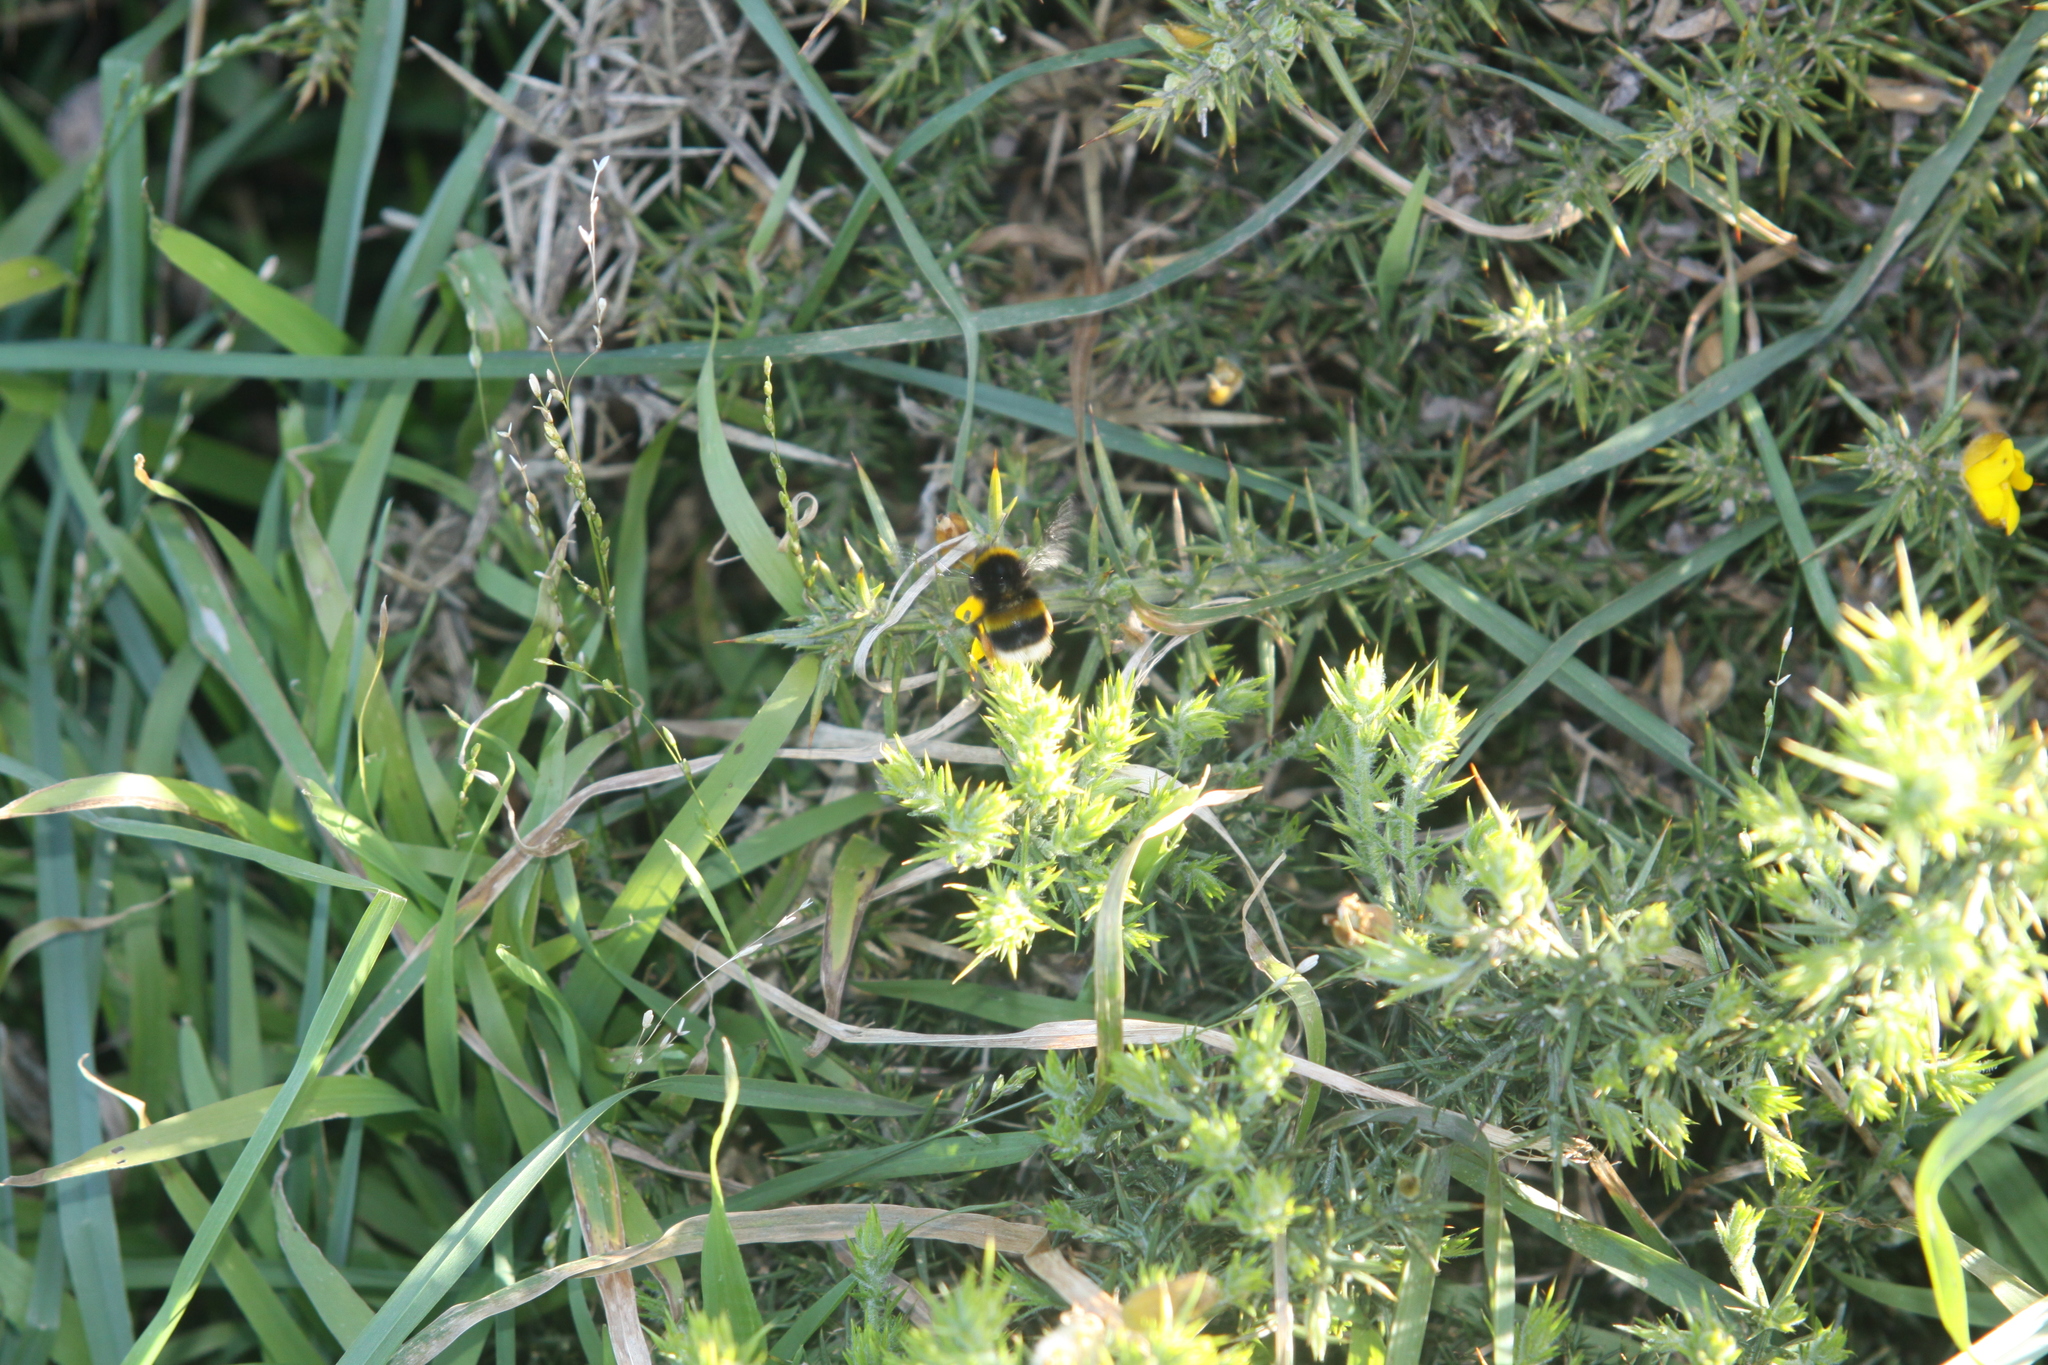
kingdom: Animalia
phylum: Arthropoda
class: Insecta
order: Hymenoptera
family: Apidae
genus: Bombus
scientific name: Bombus terrestris
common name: Buff-tailed bumblebee
